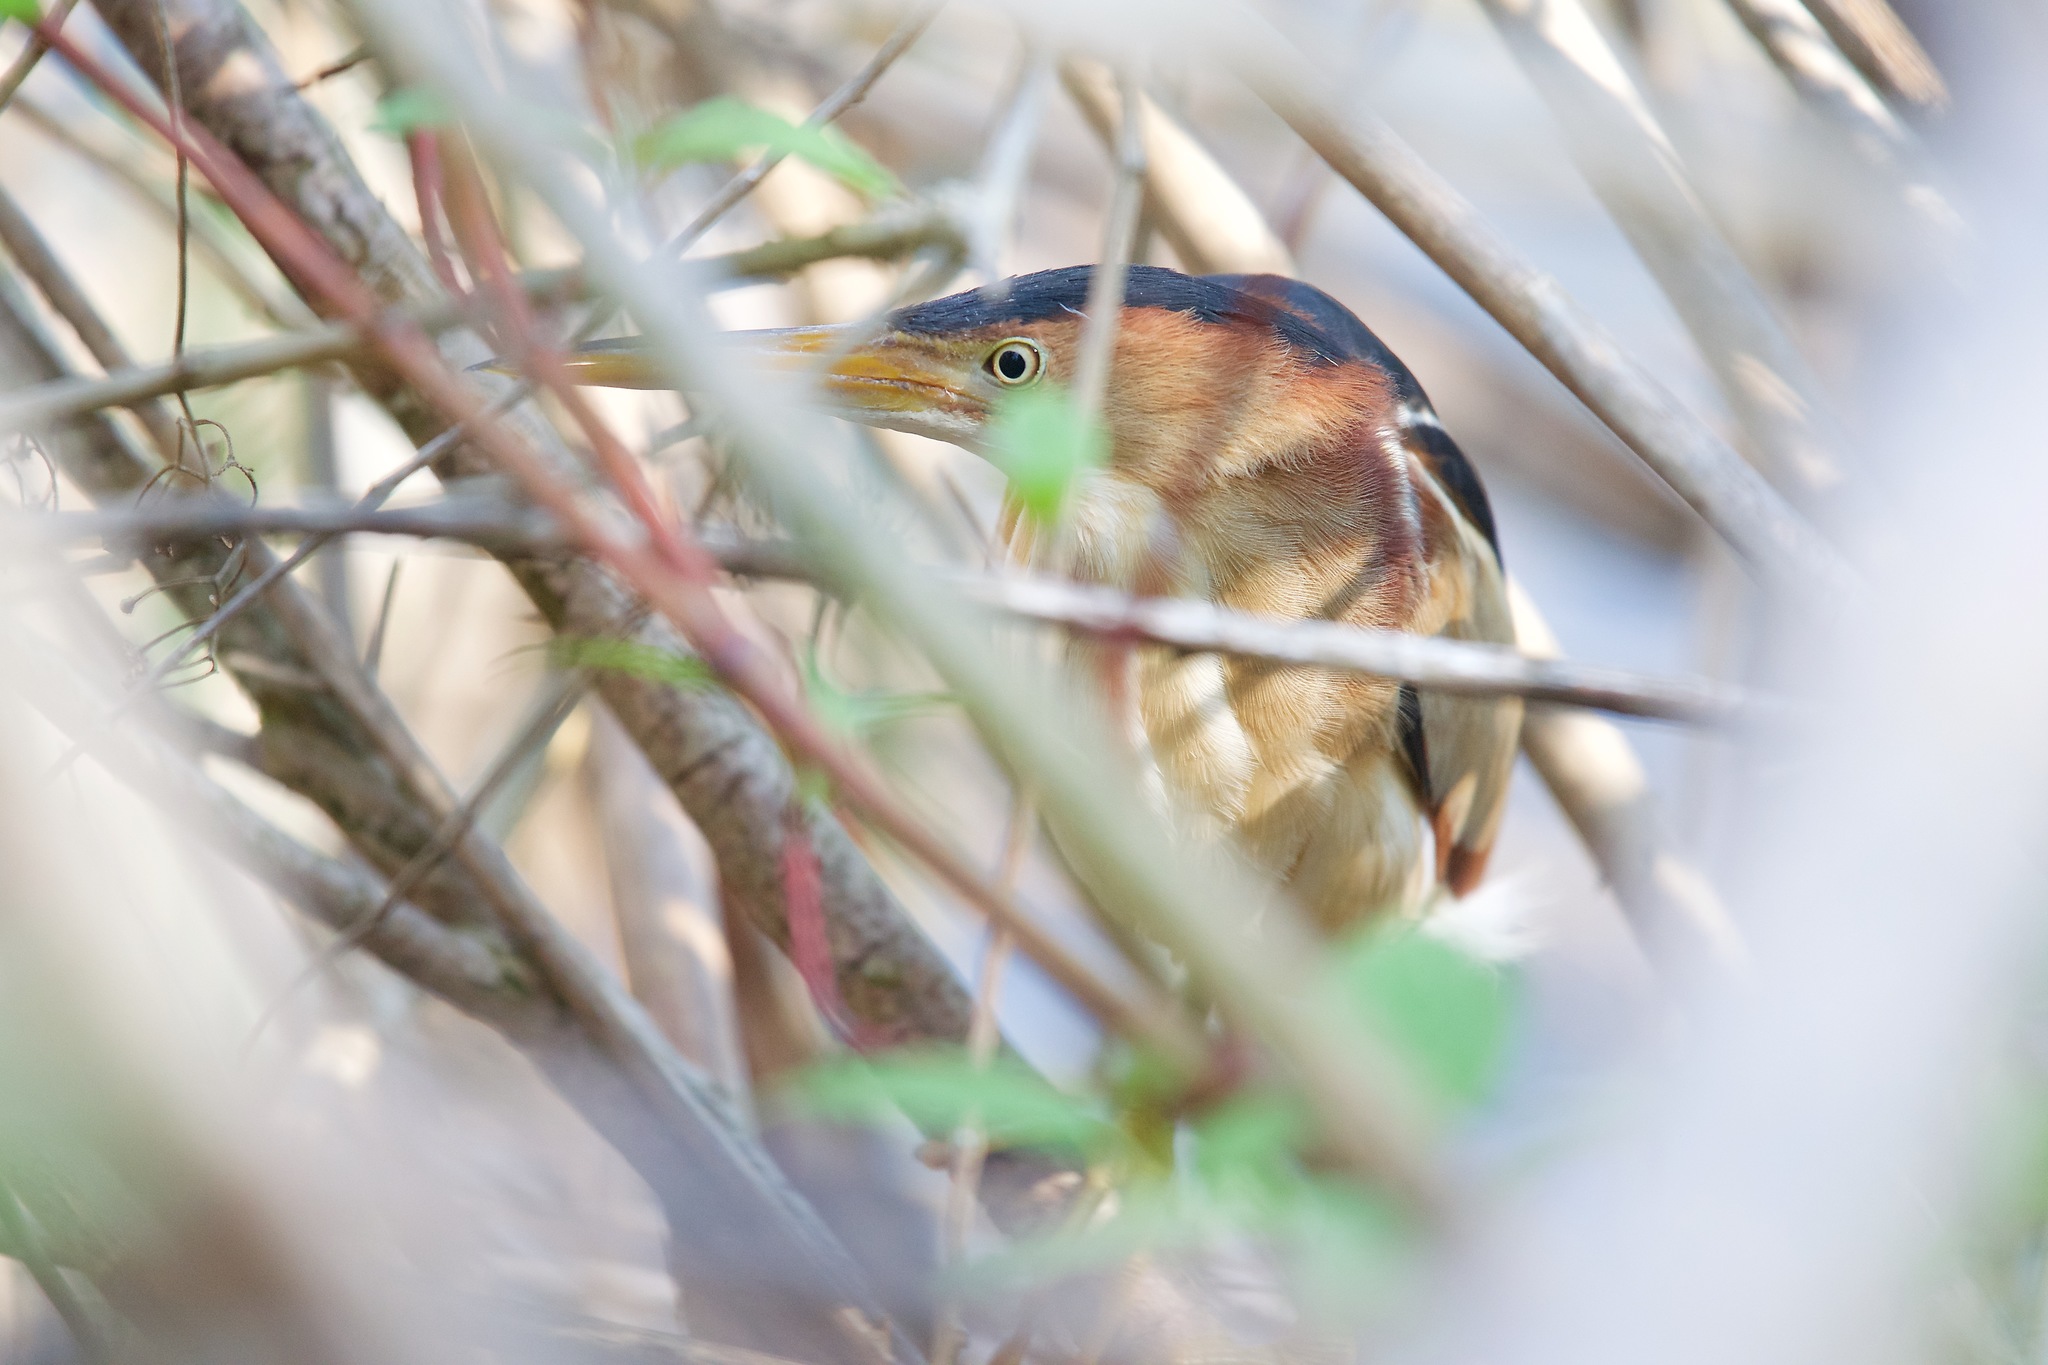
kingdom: Animalia
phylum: Chordata
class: Aves
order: Pelecaniformes
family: Ardeidae
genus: Ixobrychus
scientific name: Ixobrychus exilis
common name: Least bittern
